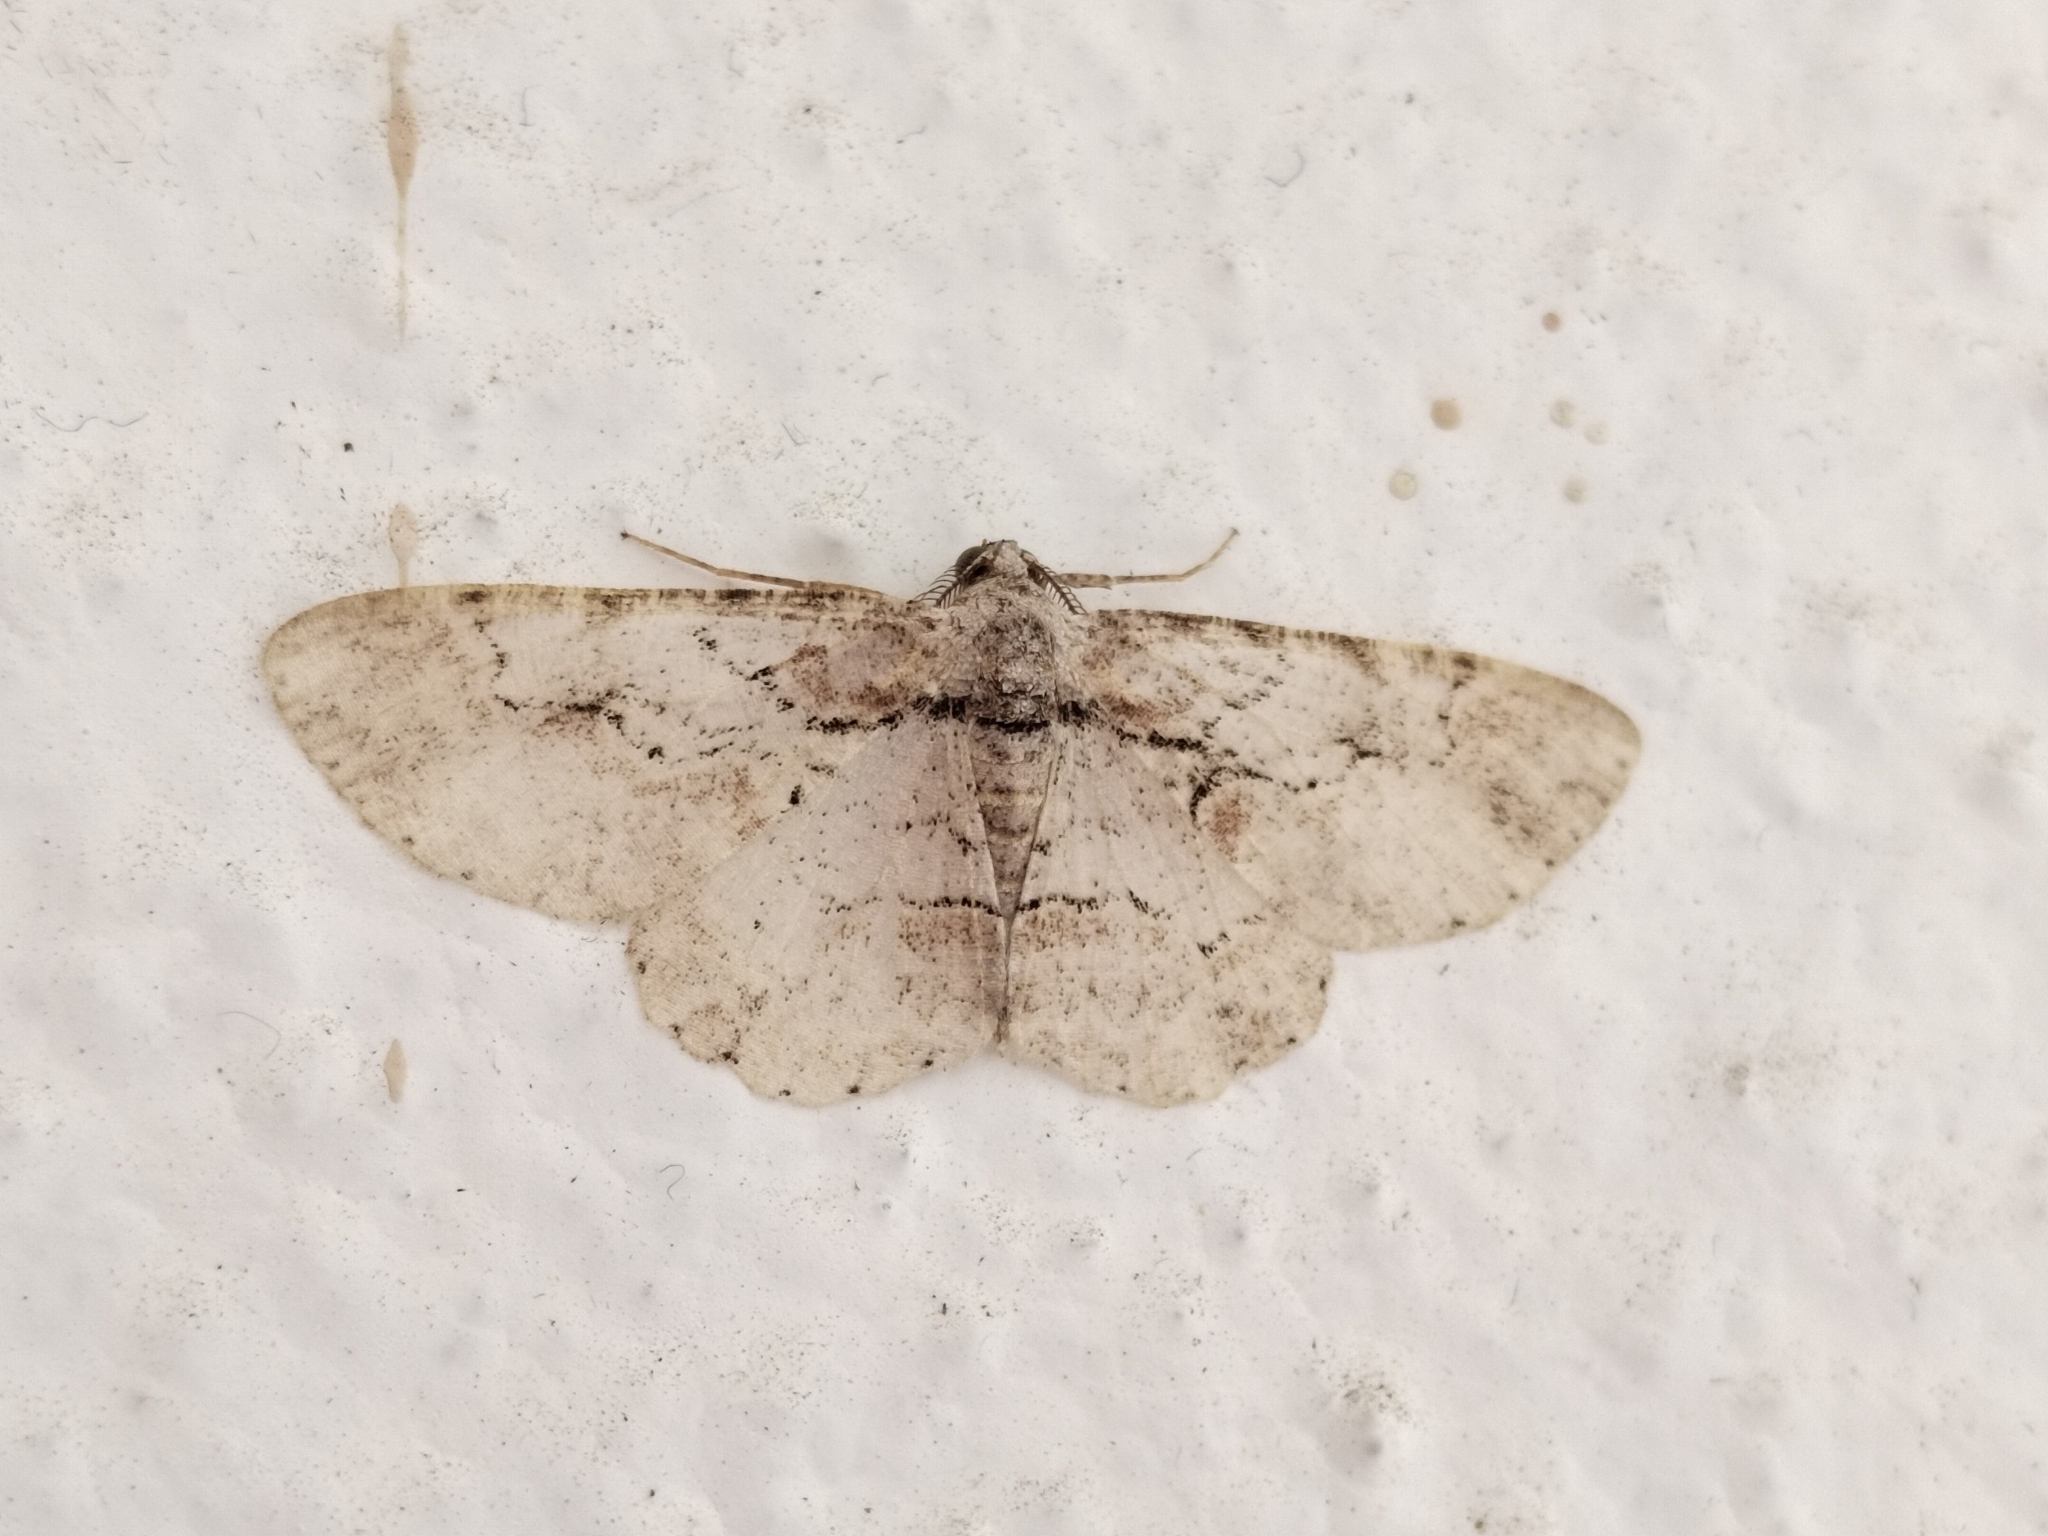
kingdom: Animalia
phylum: Arthropoda
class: Insecta
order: Lepidoptera
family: Geometridae
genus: Iridopsis
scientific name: Iridopsis defectaria
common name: Brown-shaded gray
